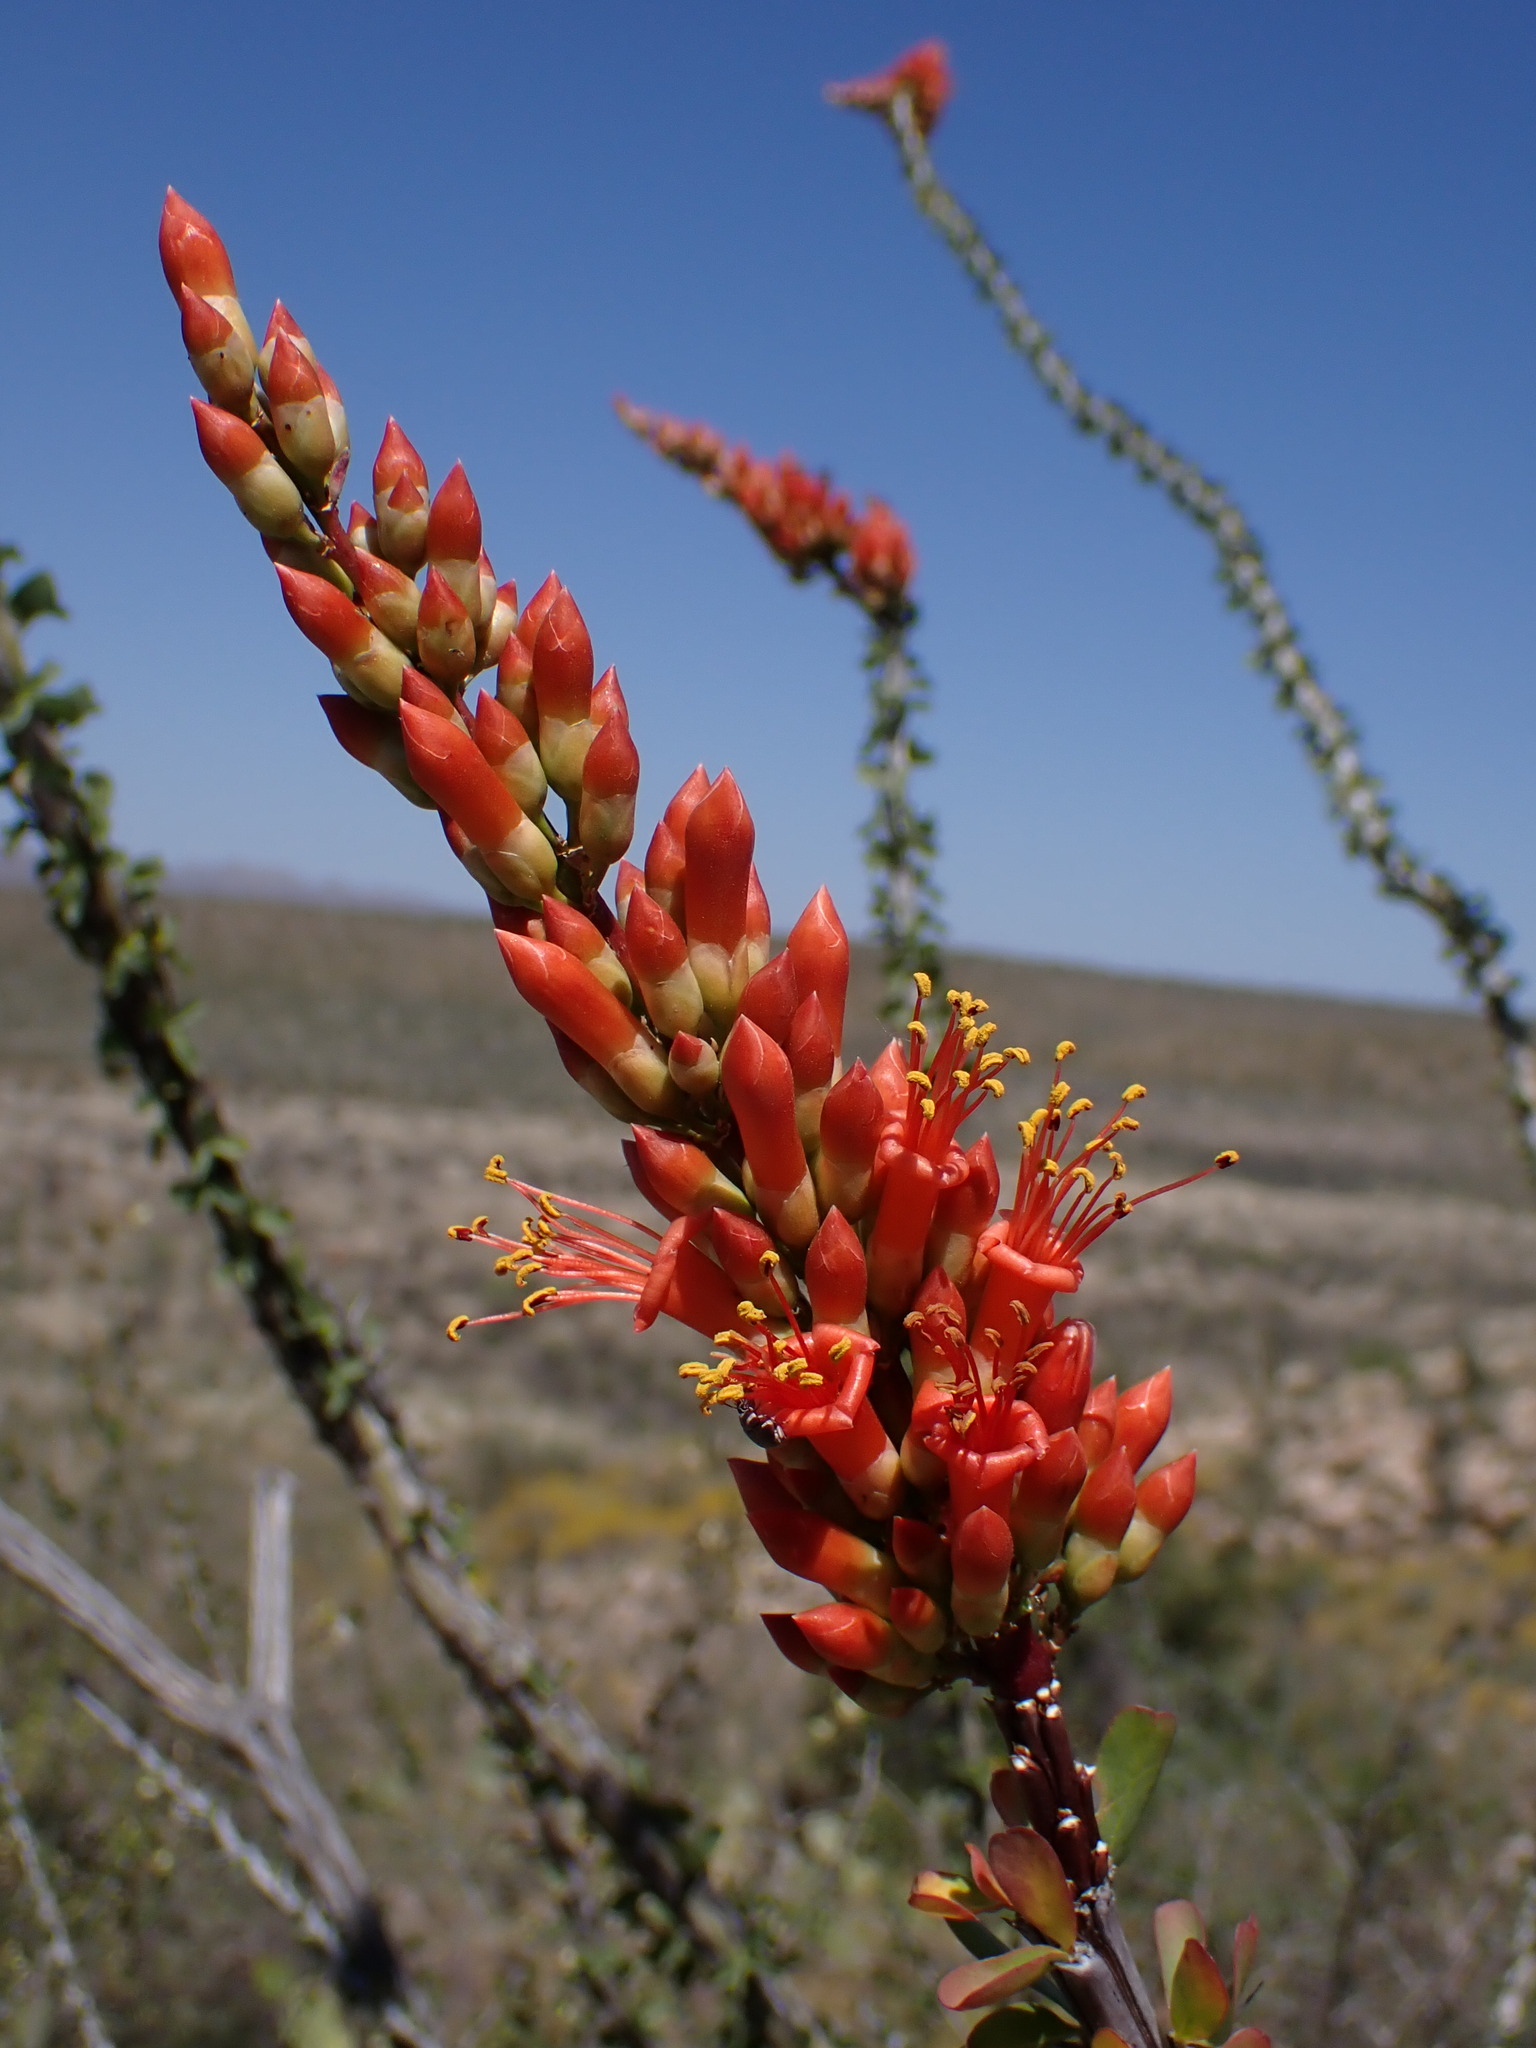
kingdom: Plantae
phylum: Tracheophyta
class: Magnoliopsida
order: Ericales
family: Fouquieriaceae
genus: Fouquieria
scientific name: Fouquieria splendens
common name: Vine-cactus
